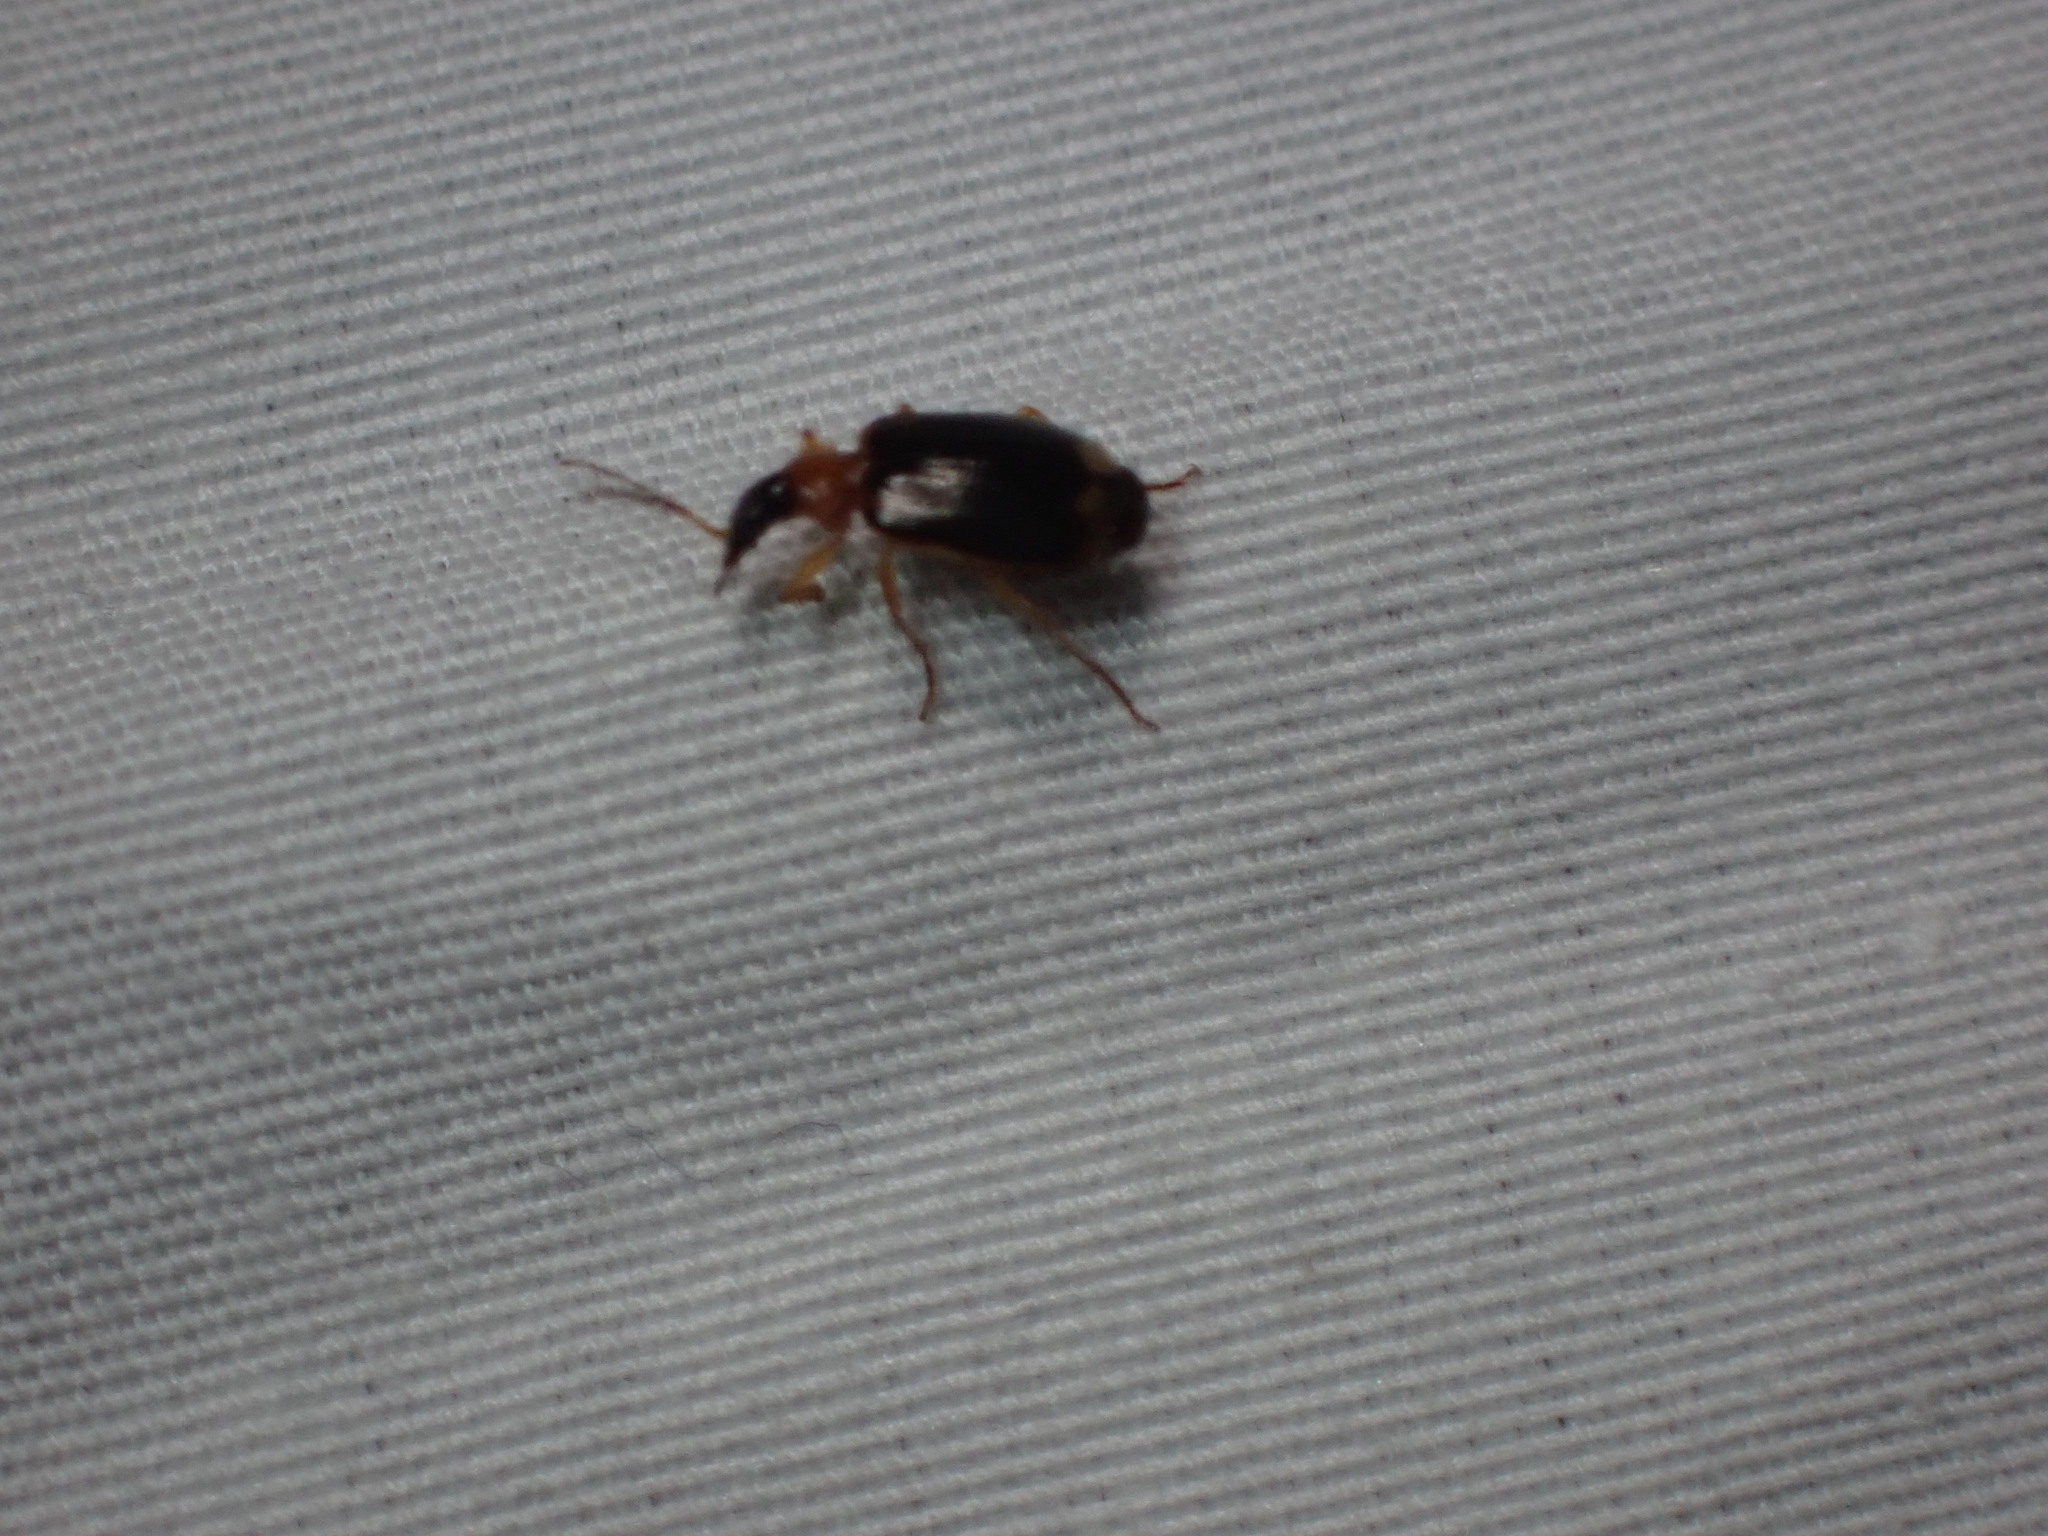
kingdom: Animalia
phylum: Arthropoda
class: Insecta
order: Coleoptera
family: Carabidae
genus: Lebia
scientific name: Lebia analis
